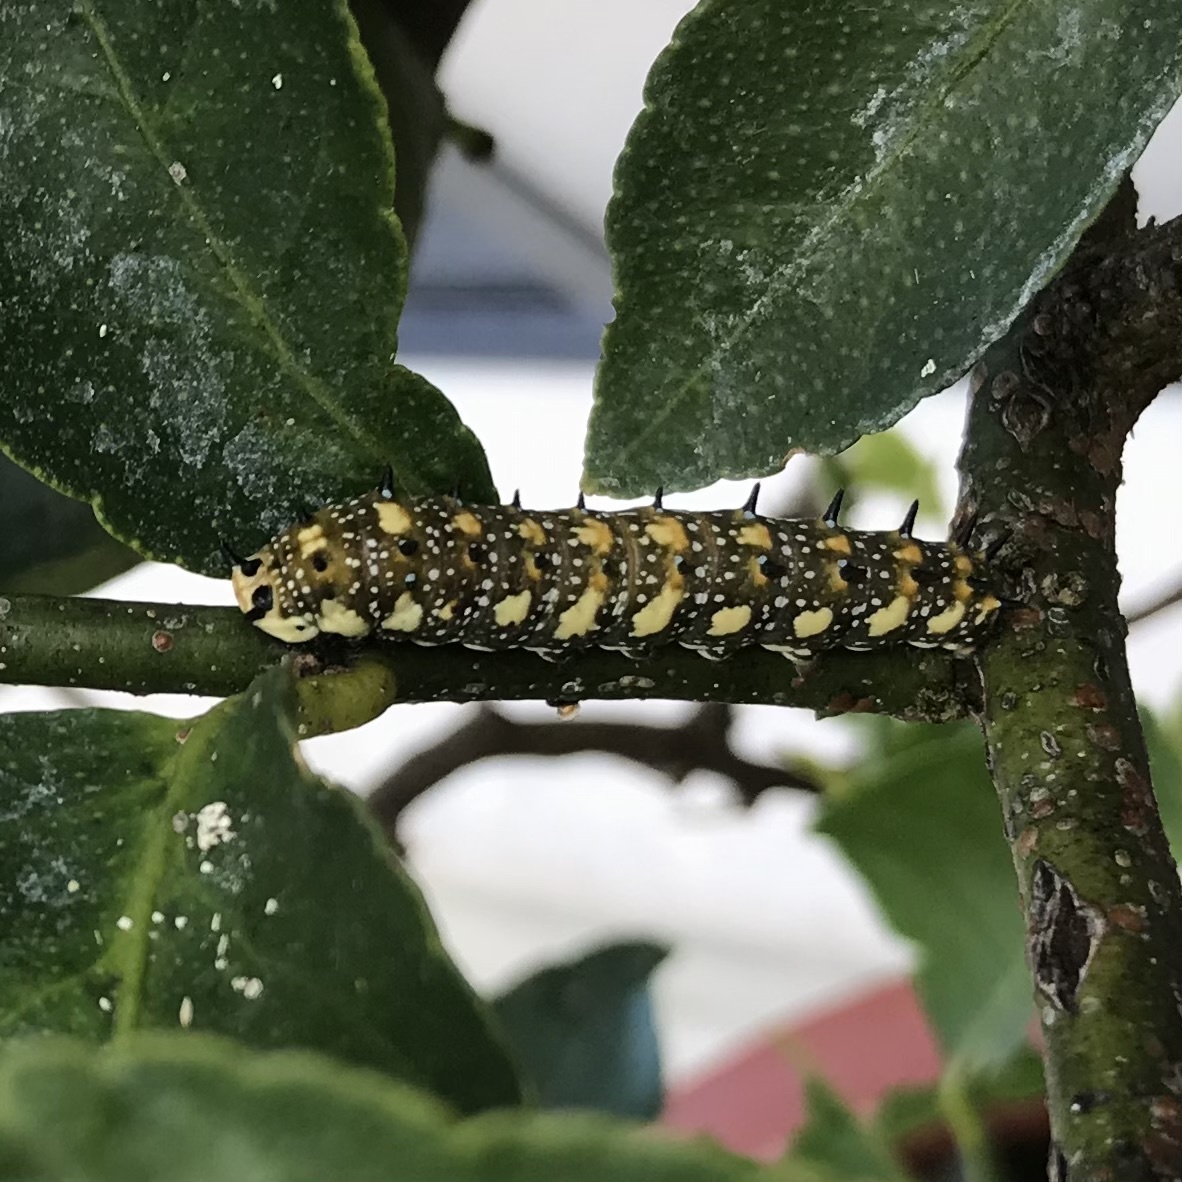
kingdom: Animalia
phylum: Arthropoda
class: Insecta
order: Lepidoptera
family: Papilionidae
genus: Papilio
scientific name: Papilio anactus
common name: Dingy swallowtail
